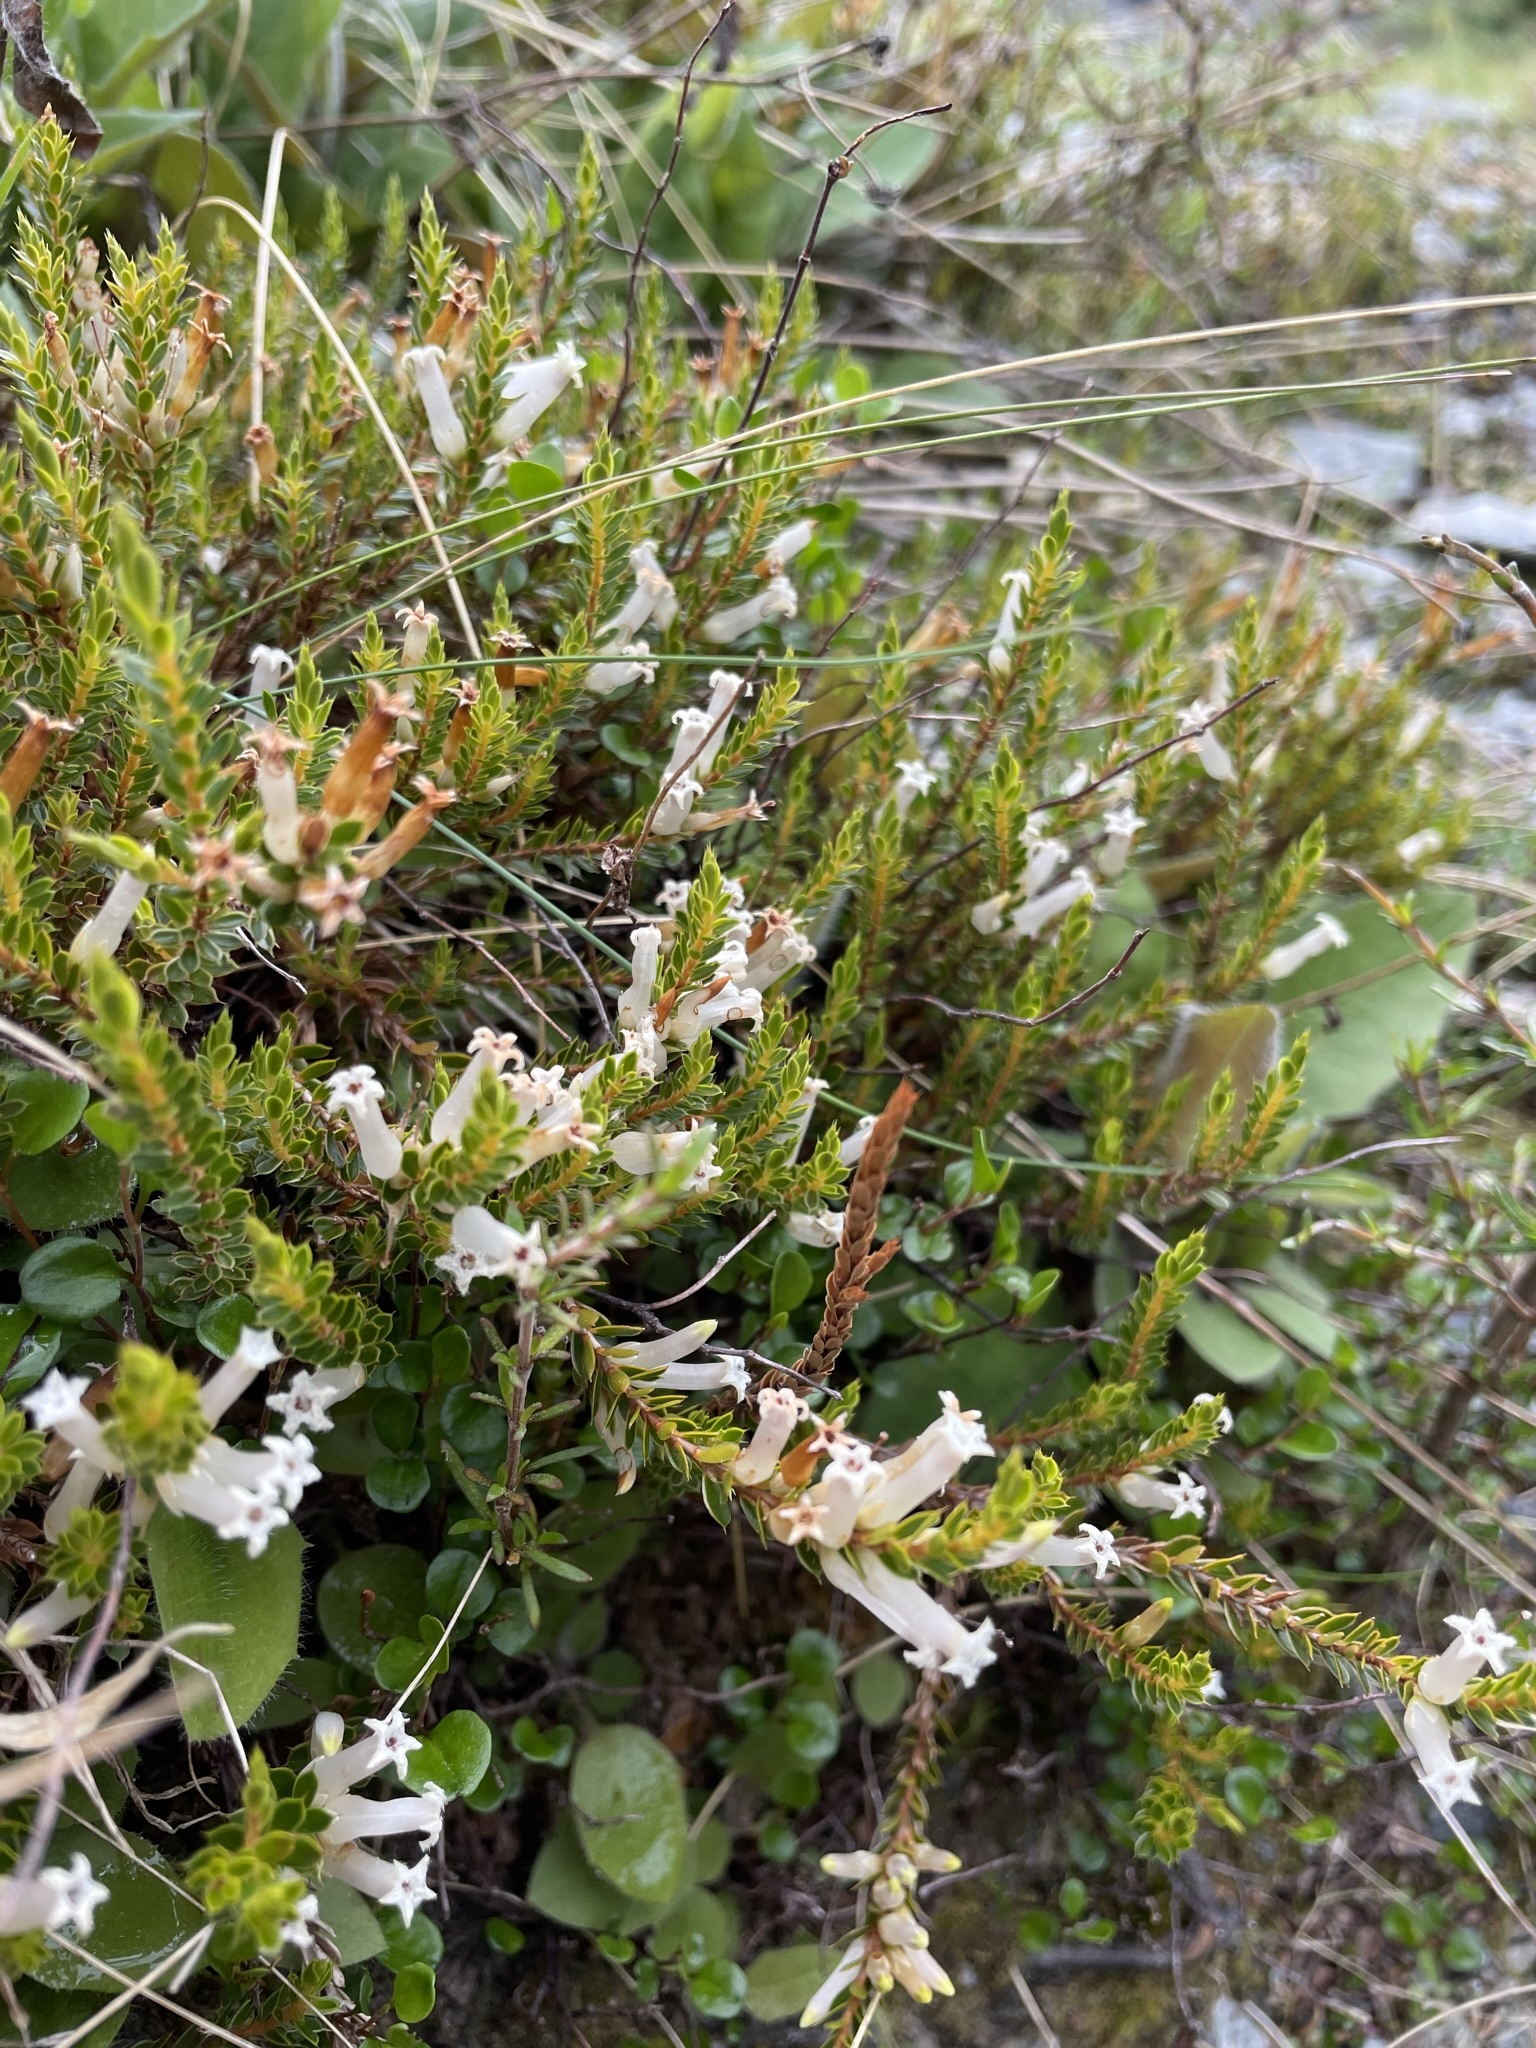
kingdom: Plantae
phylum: Tracheophyta
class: Magnoliopsida
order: Ericales
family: Ericaceae
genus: Styphelia
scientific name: Styphelia nesophila
